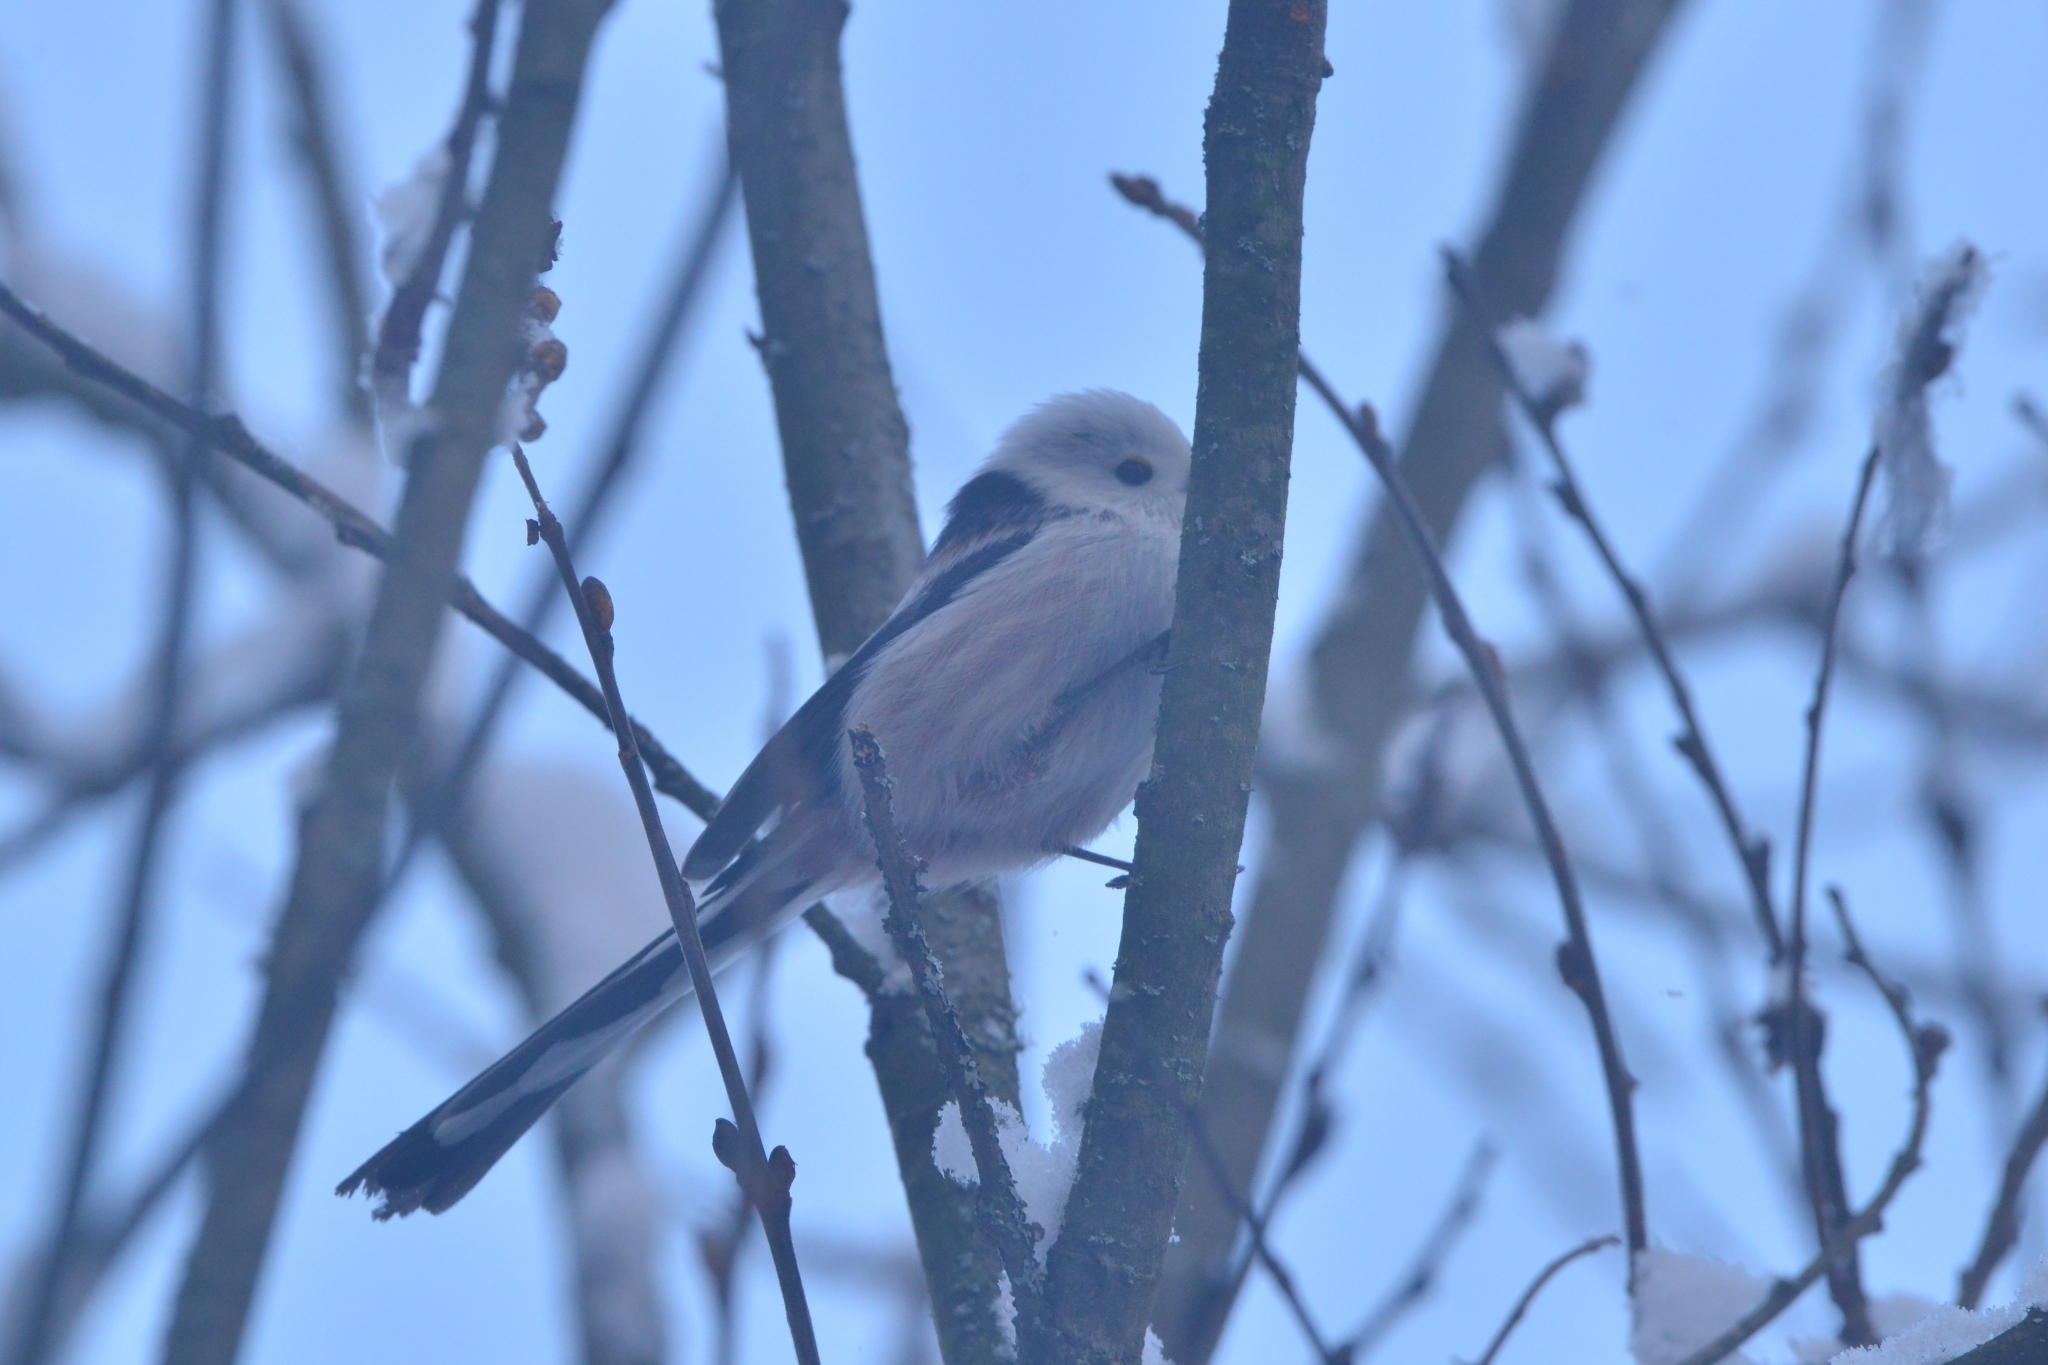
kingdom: Animalia
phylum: Chordata
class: Aves
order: Passeriformes
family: Aegithalidae
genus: Aegithalos
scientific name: Aegithalos caudatus
